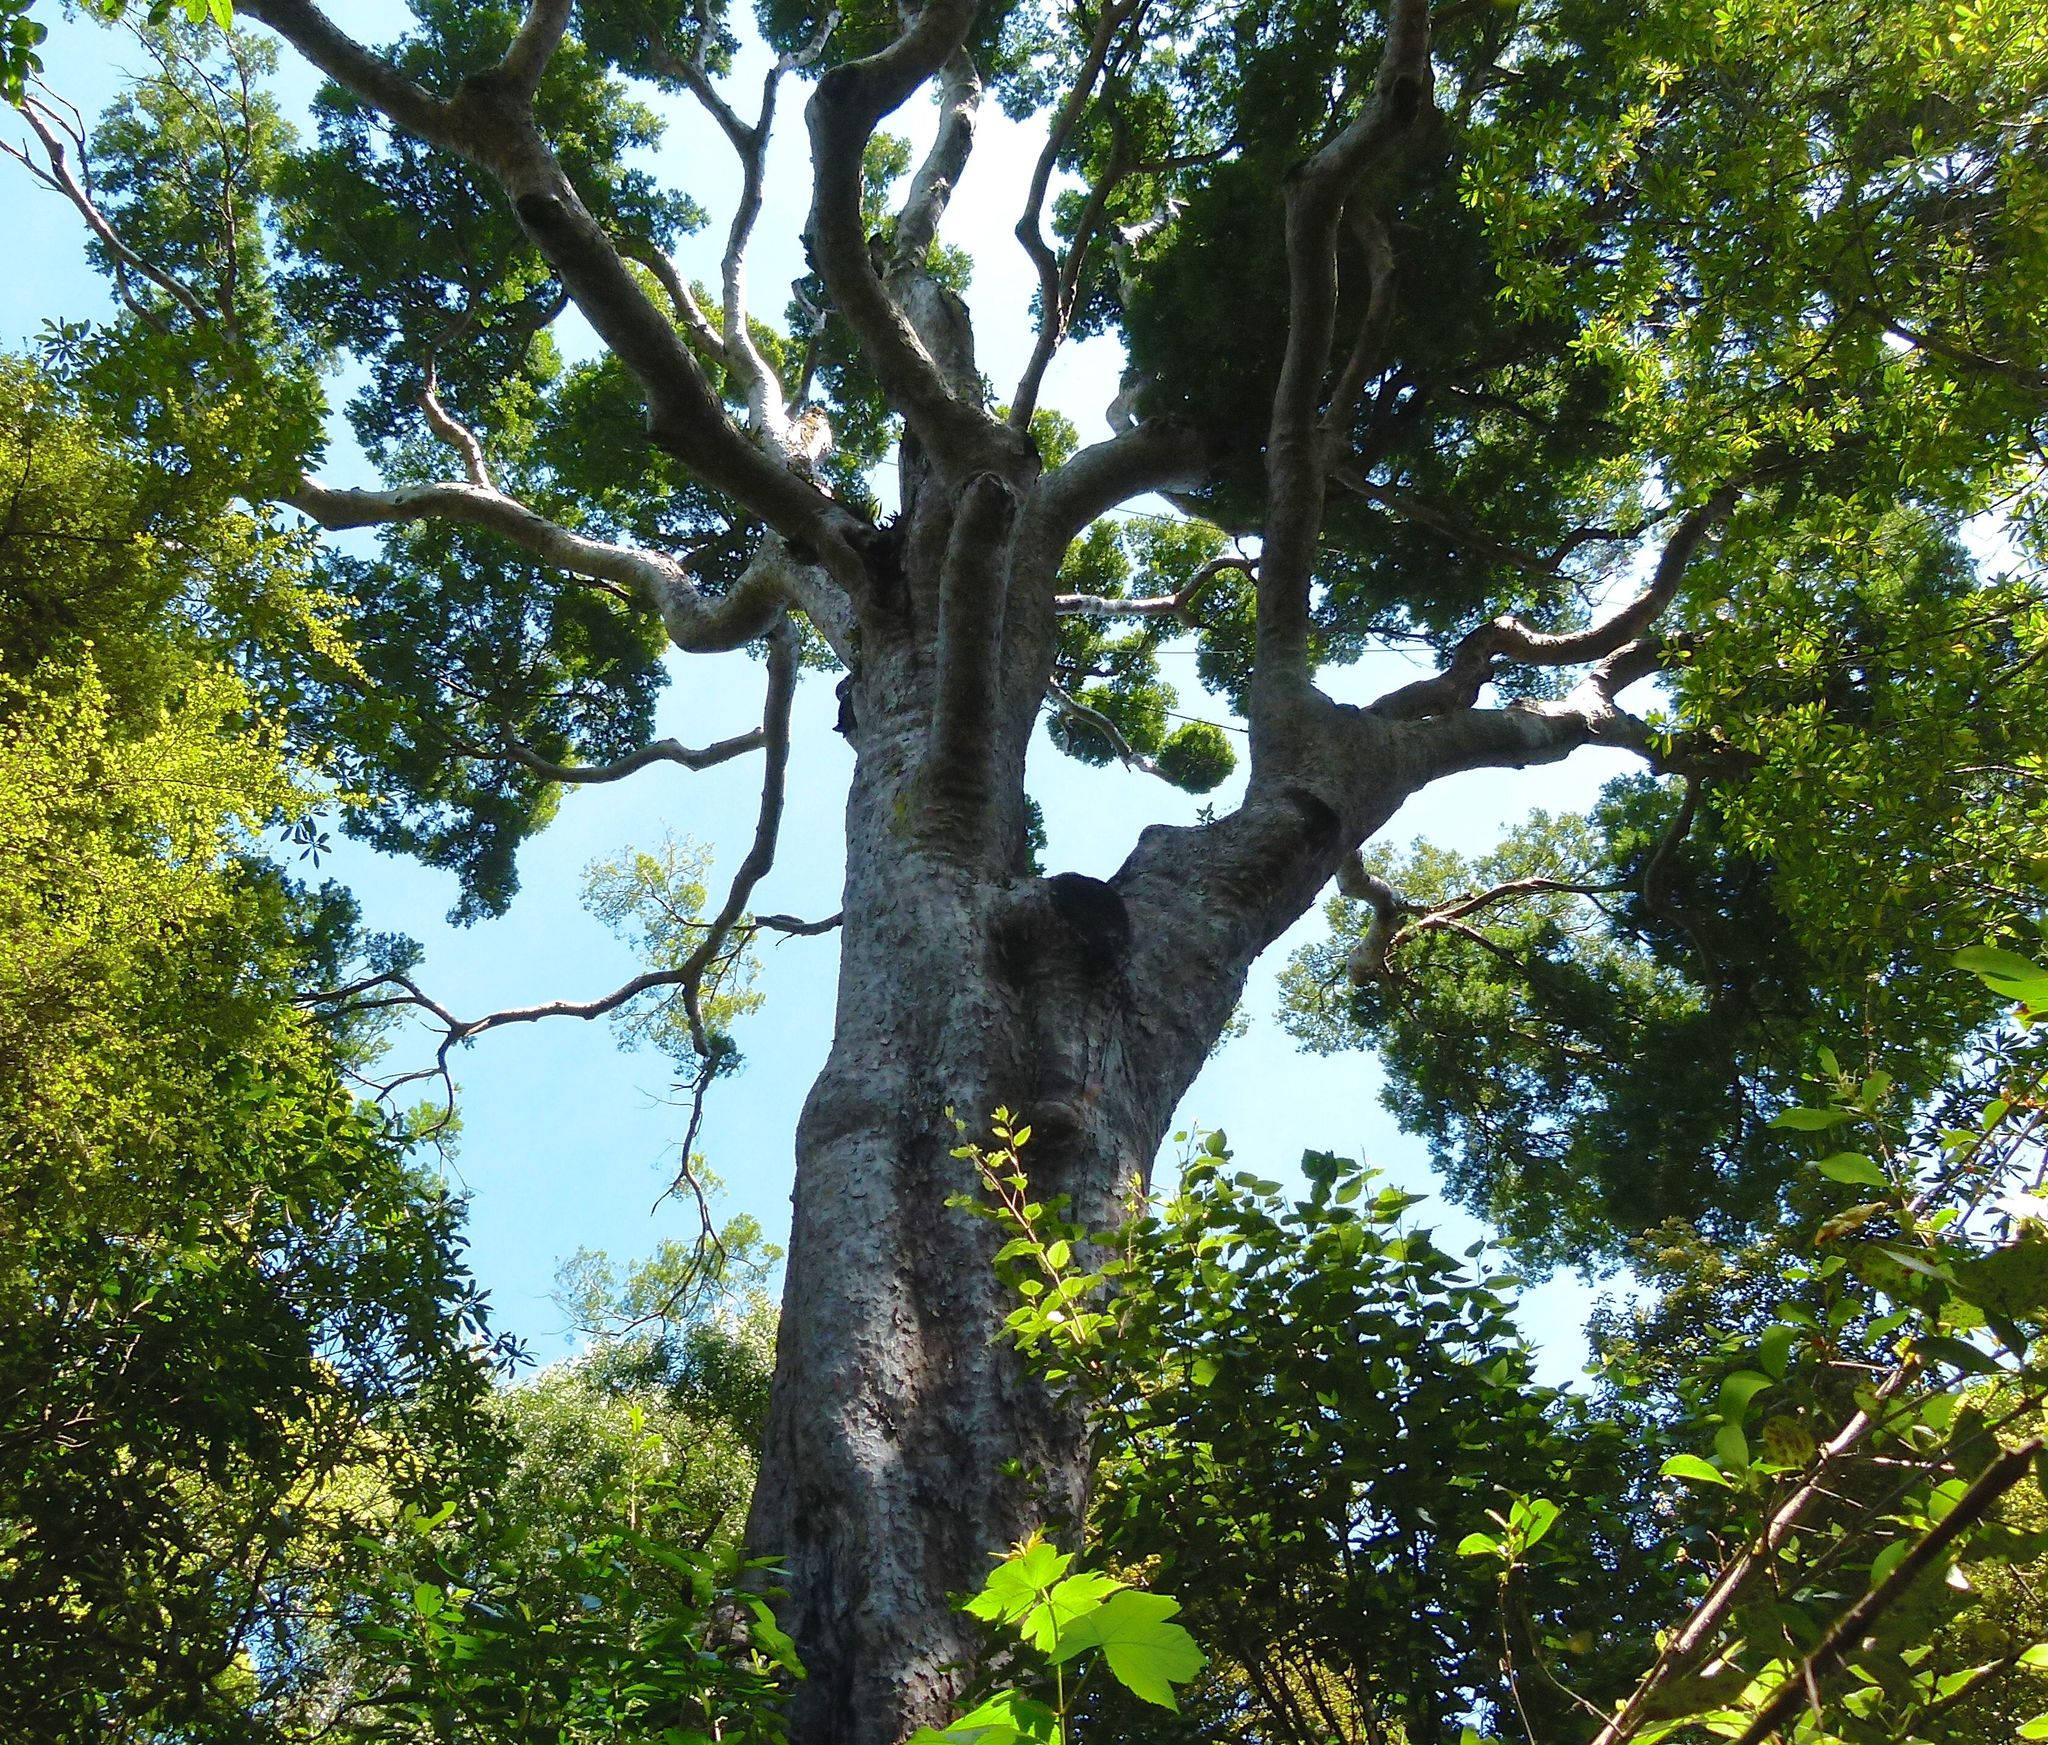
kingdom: Plantae
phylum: Tracheophyta
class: Pinopsida
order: Pinales
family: Podocarpaceae
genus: Prumnopitys
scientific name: Prumnopitys taxifolia
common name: Matai
